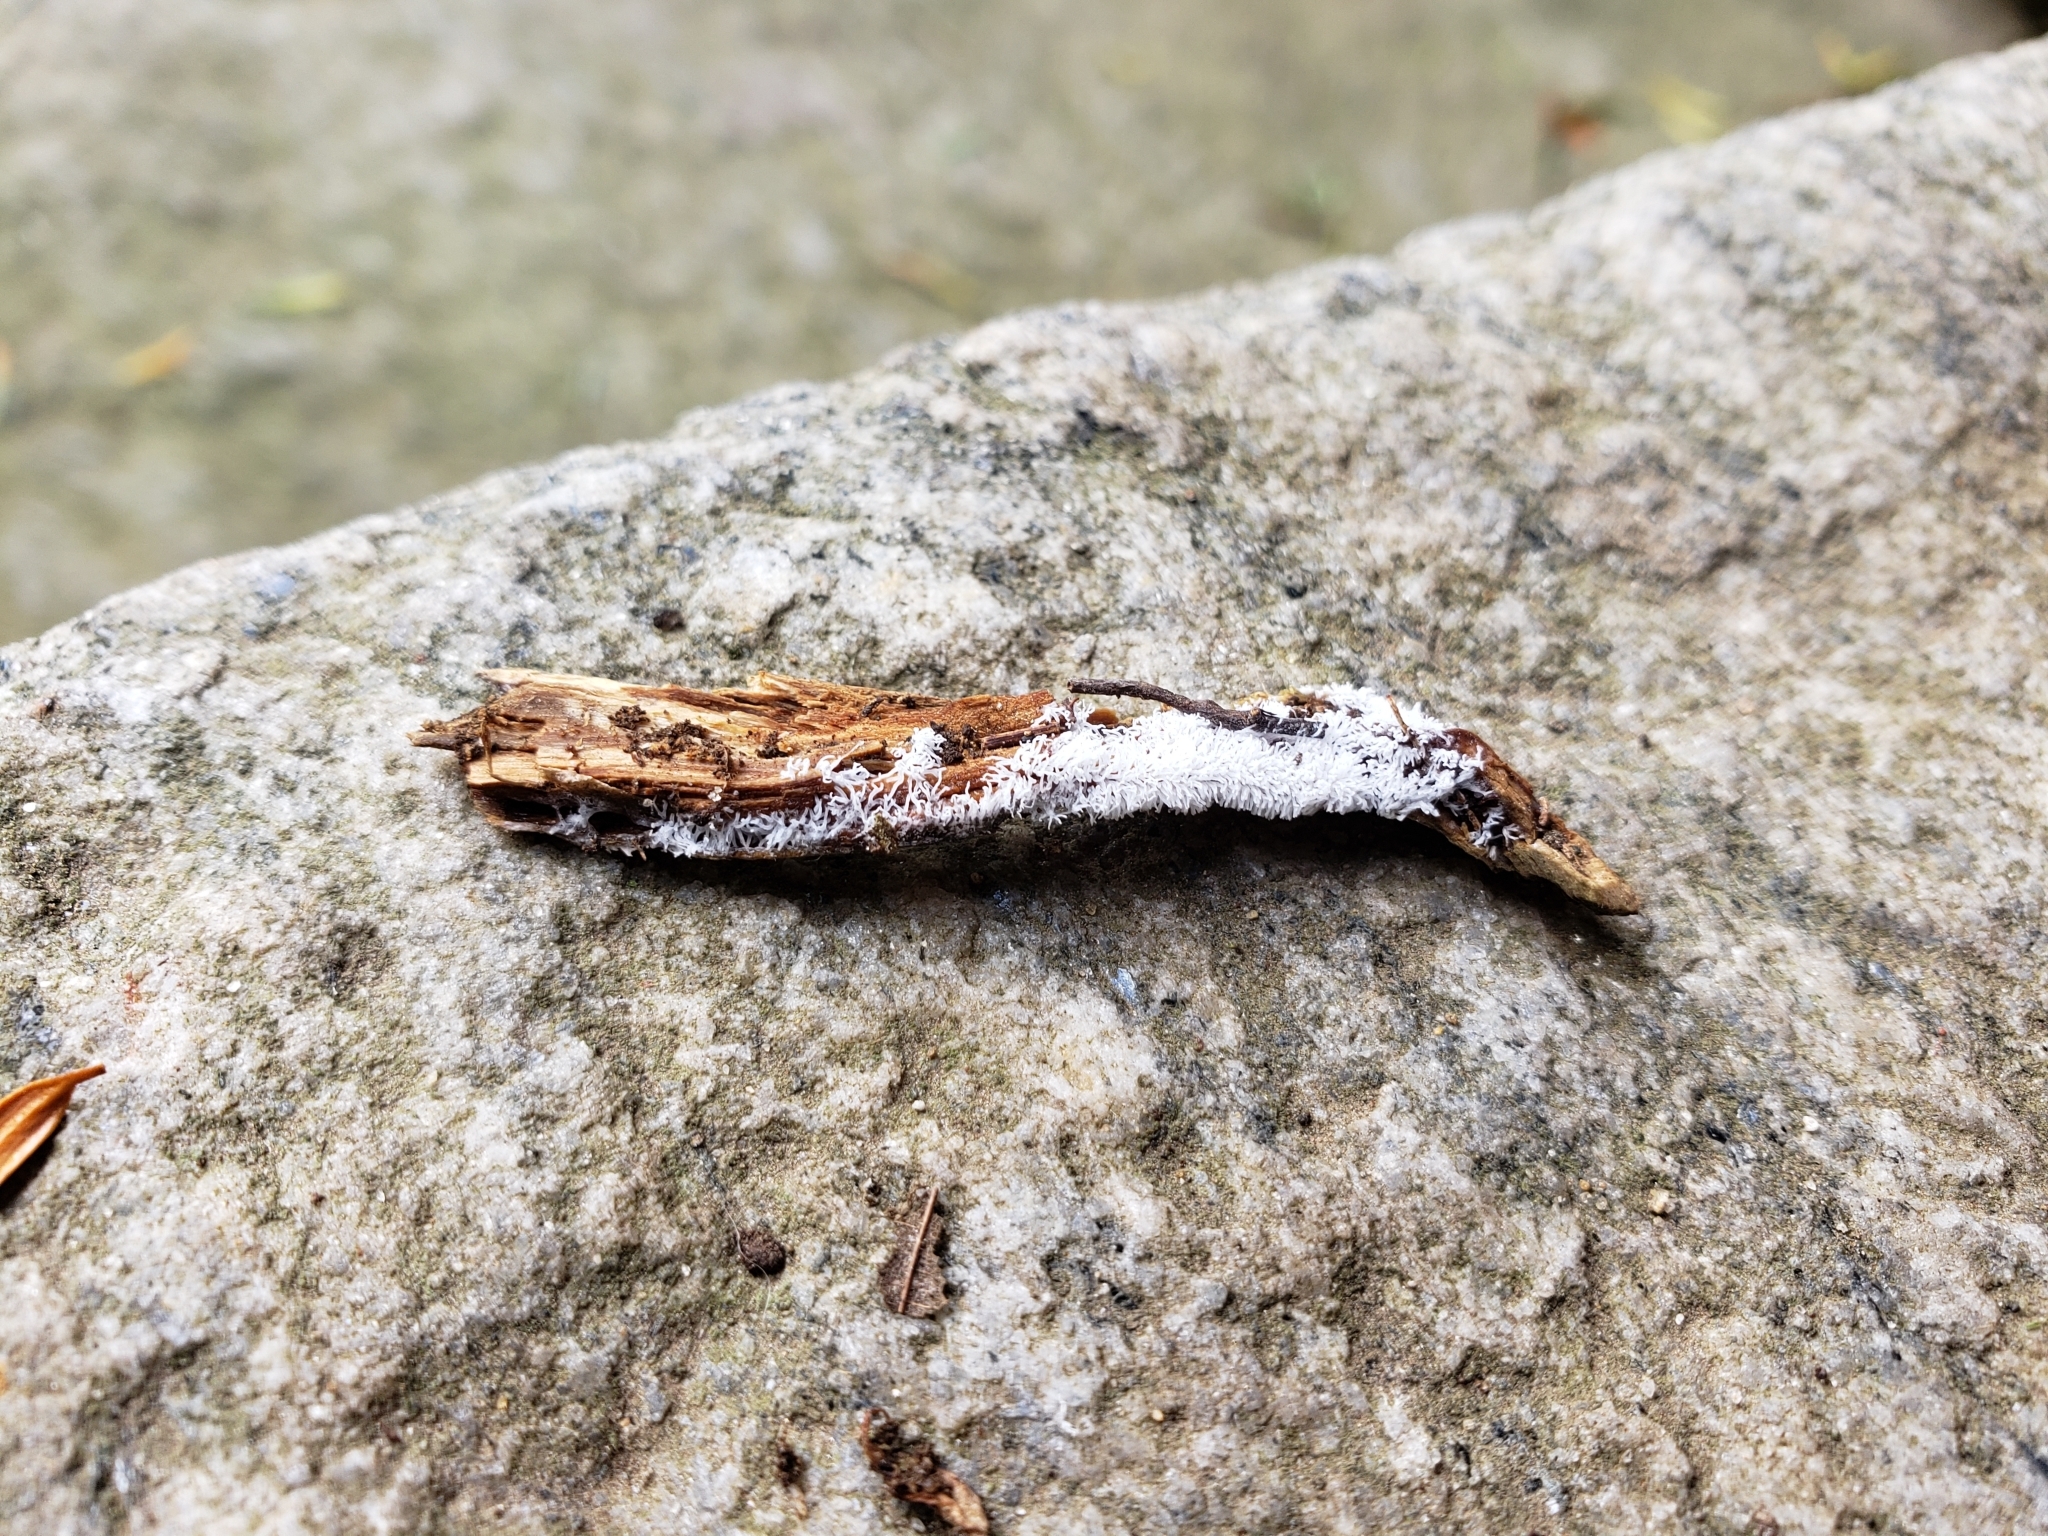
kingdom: Protozoa
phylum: Mycetozoa
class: Protosteliomycetes
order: Ceratiomyxales
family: Ceratiomyxaceae
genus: Ceratiomyxa
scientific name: Ceratiomyxa fruticulosa
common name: Honeycomb coral slime mold
